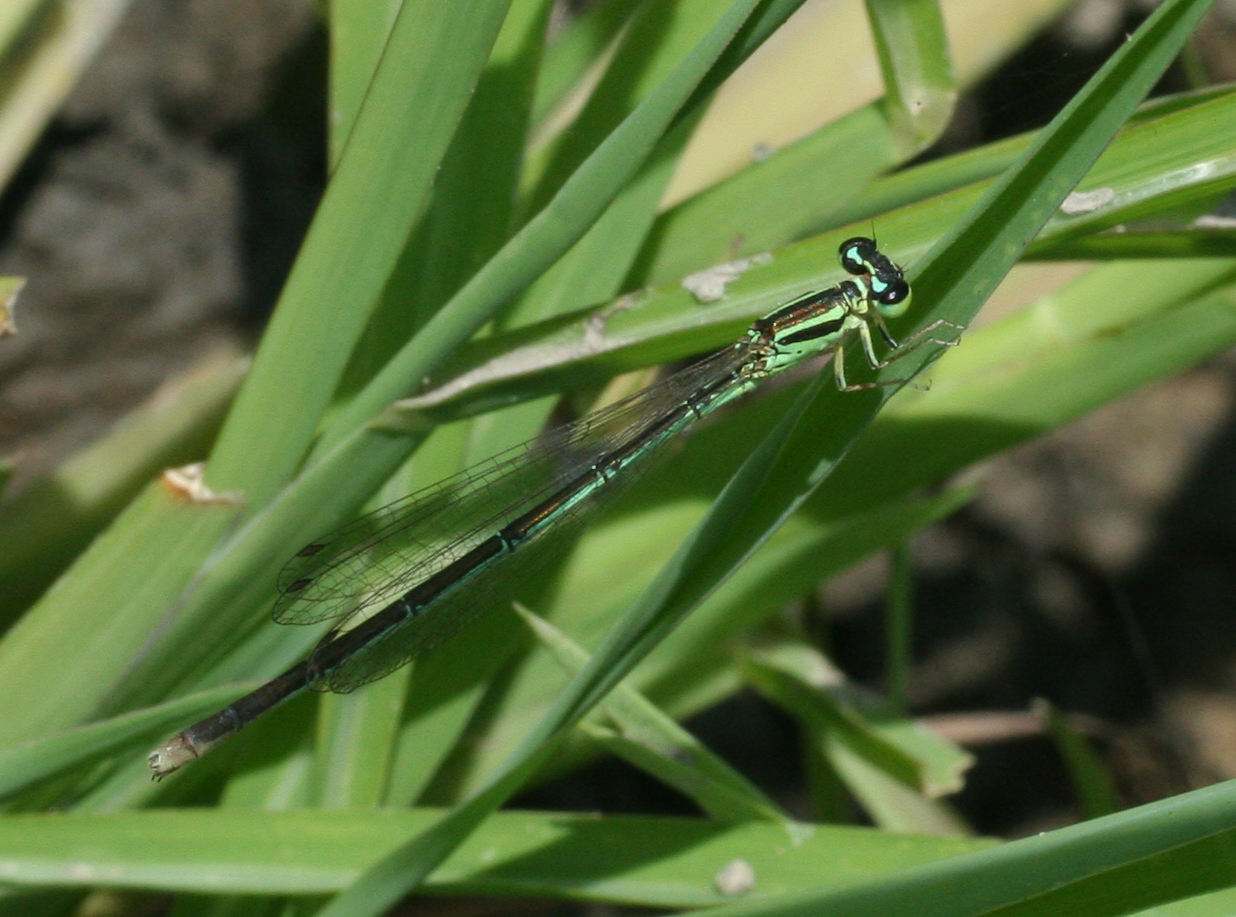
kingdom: Animalia
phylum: Arthropoda
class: Insecta
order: Odonata
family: Coenagrionidae
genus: Coenagrion
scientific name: Coenagrion ecornutum
